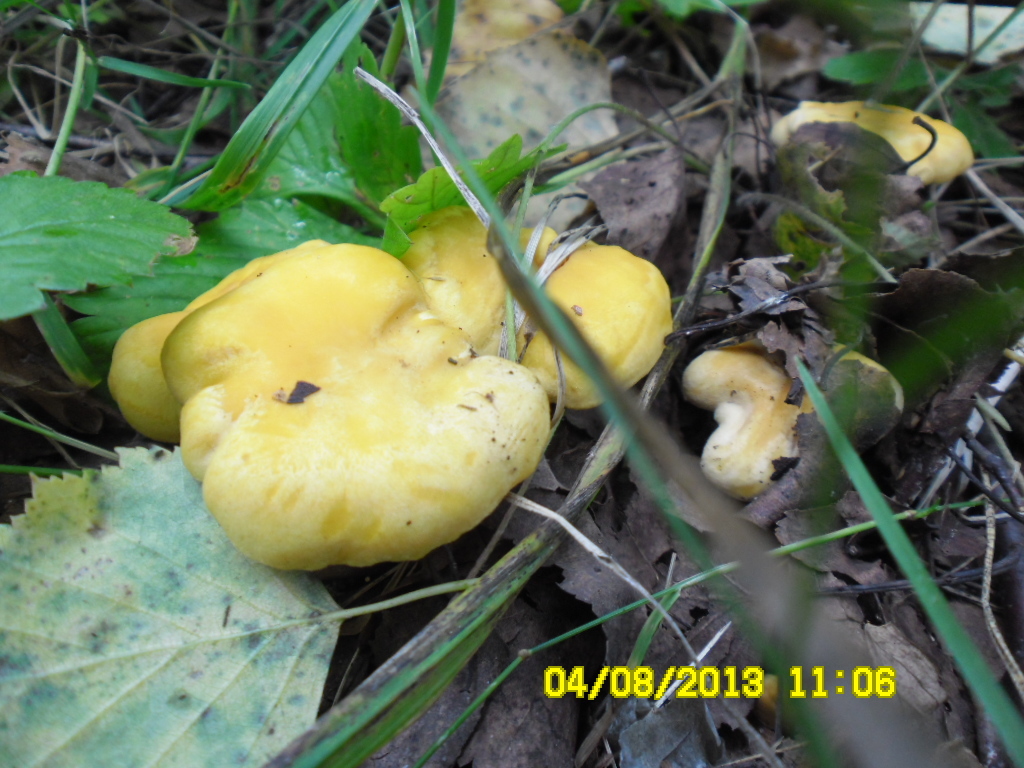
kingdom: Fungi
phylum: Basidiomycota
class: Agaricomycetes
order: Cantharellales
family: Hydnaceae
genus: Cantharellus
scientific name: Cantharellus cibarius
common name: Chanterelle
